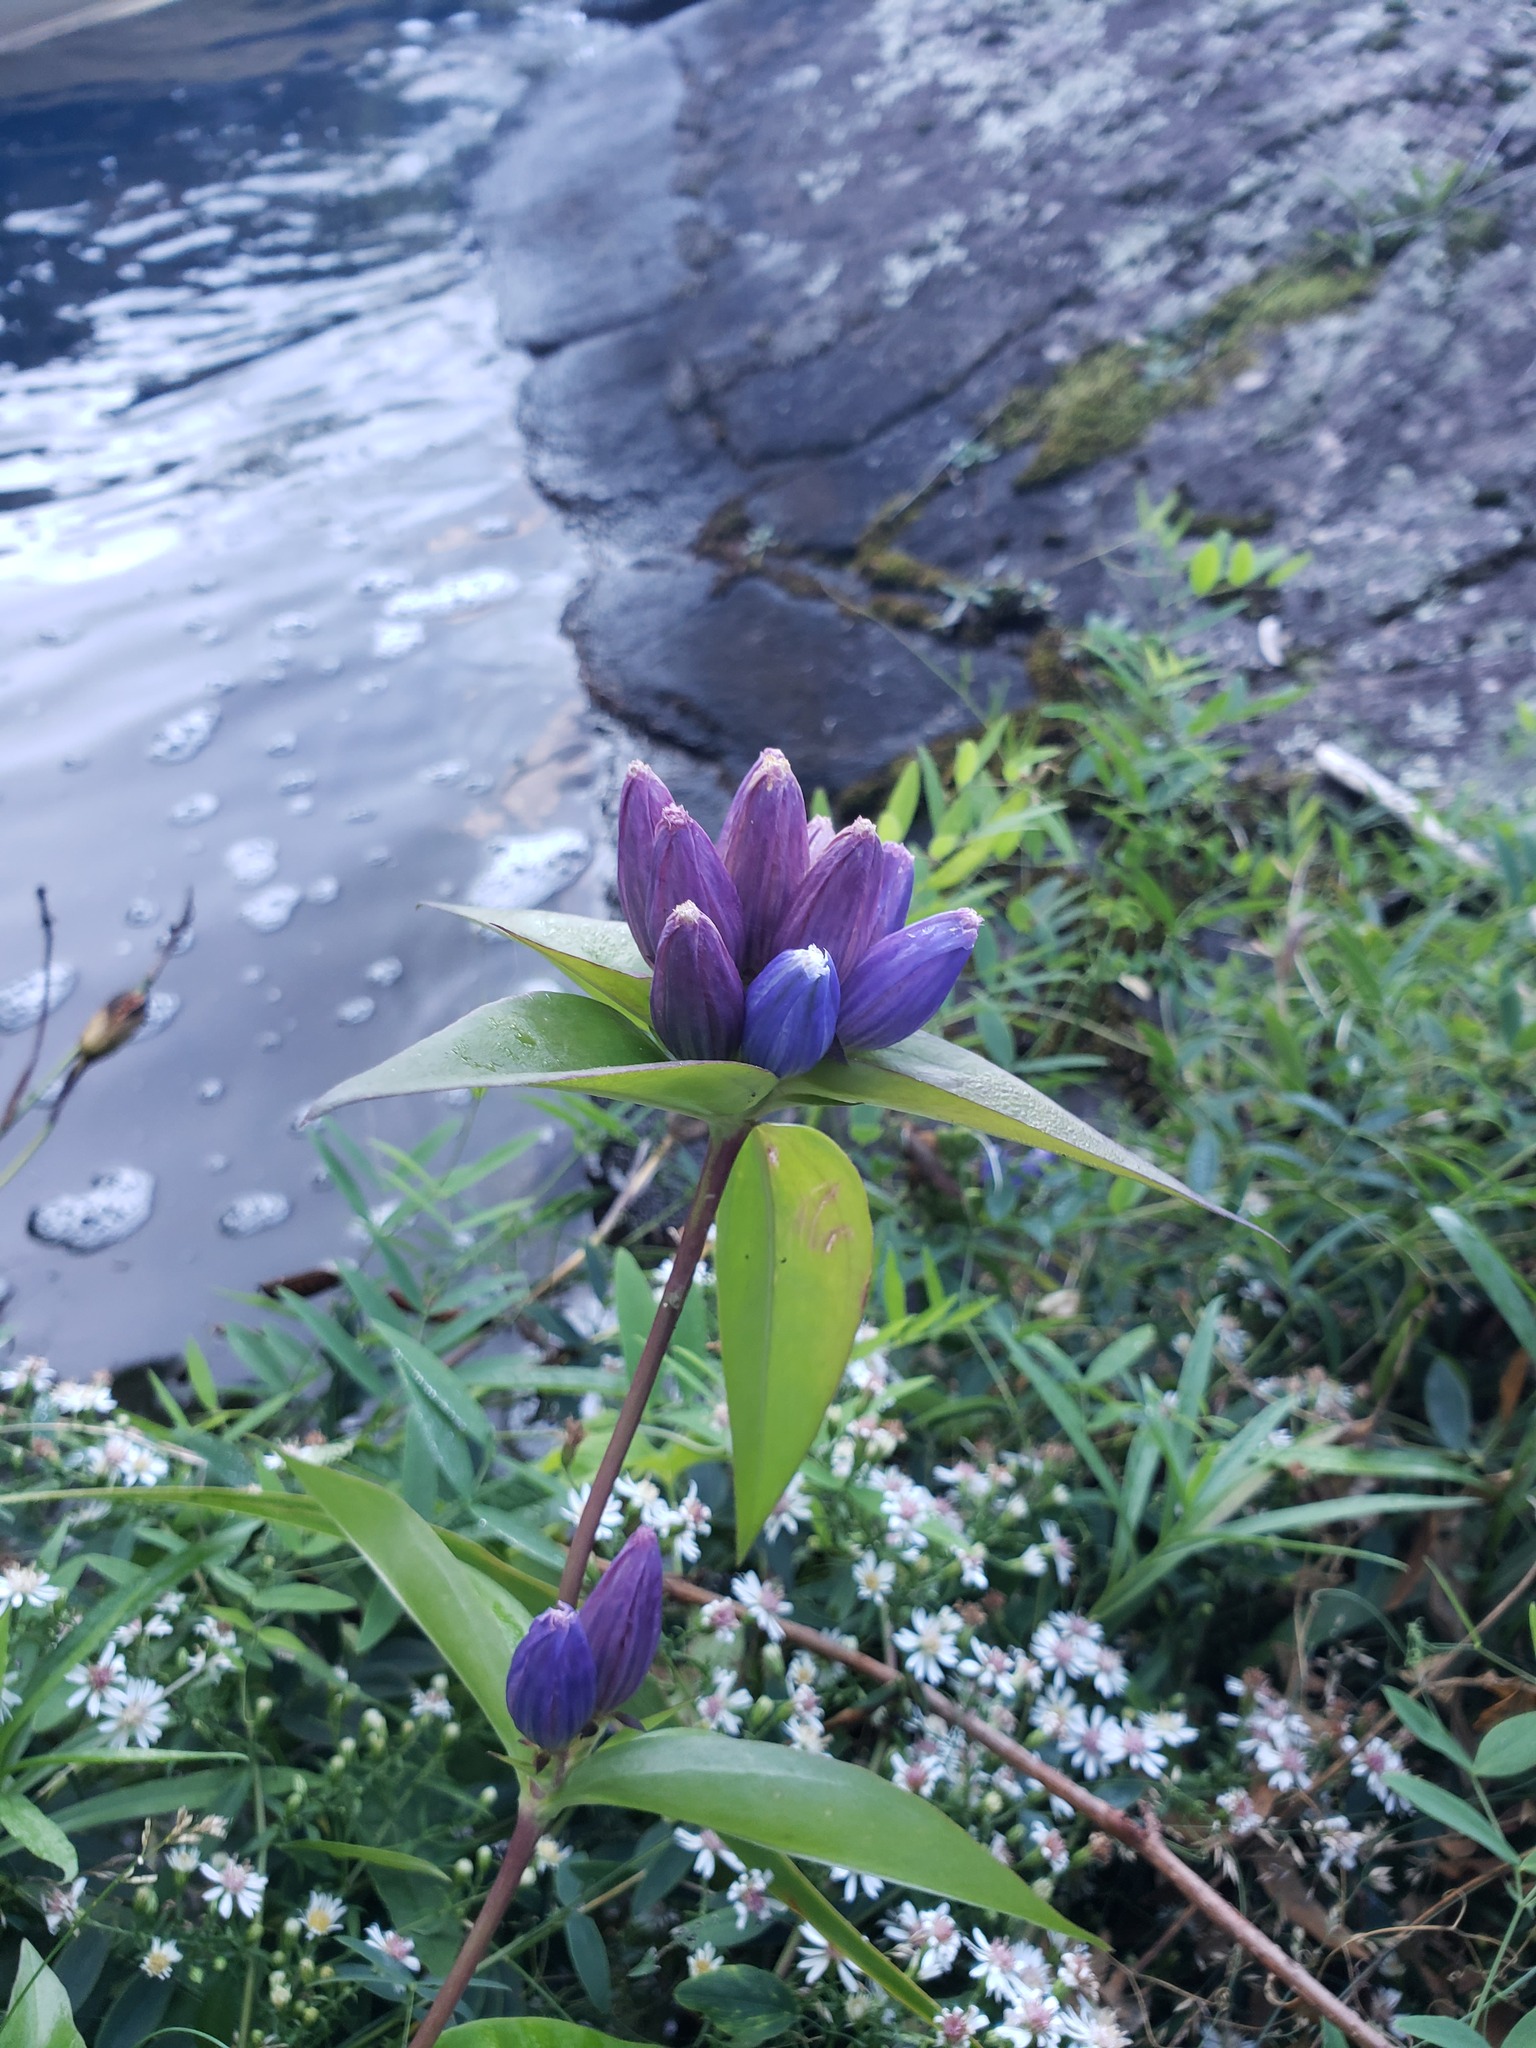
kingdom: Plantae
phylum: Tracheophyta
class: Magnoliopsida
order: Gentianales
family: Gentianaceae
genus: Gentiana
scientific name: Gentiana andrewsii
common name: Bottle gentian
